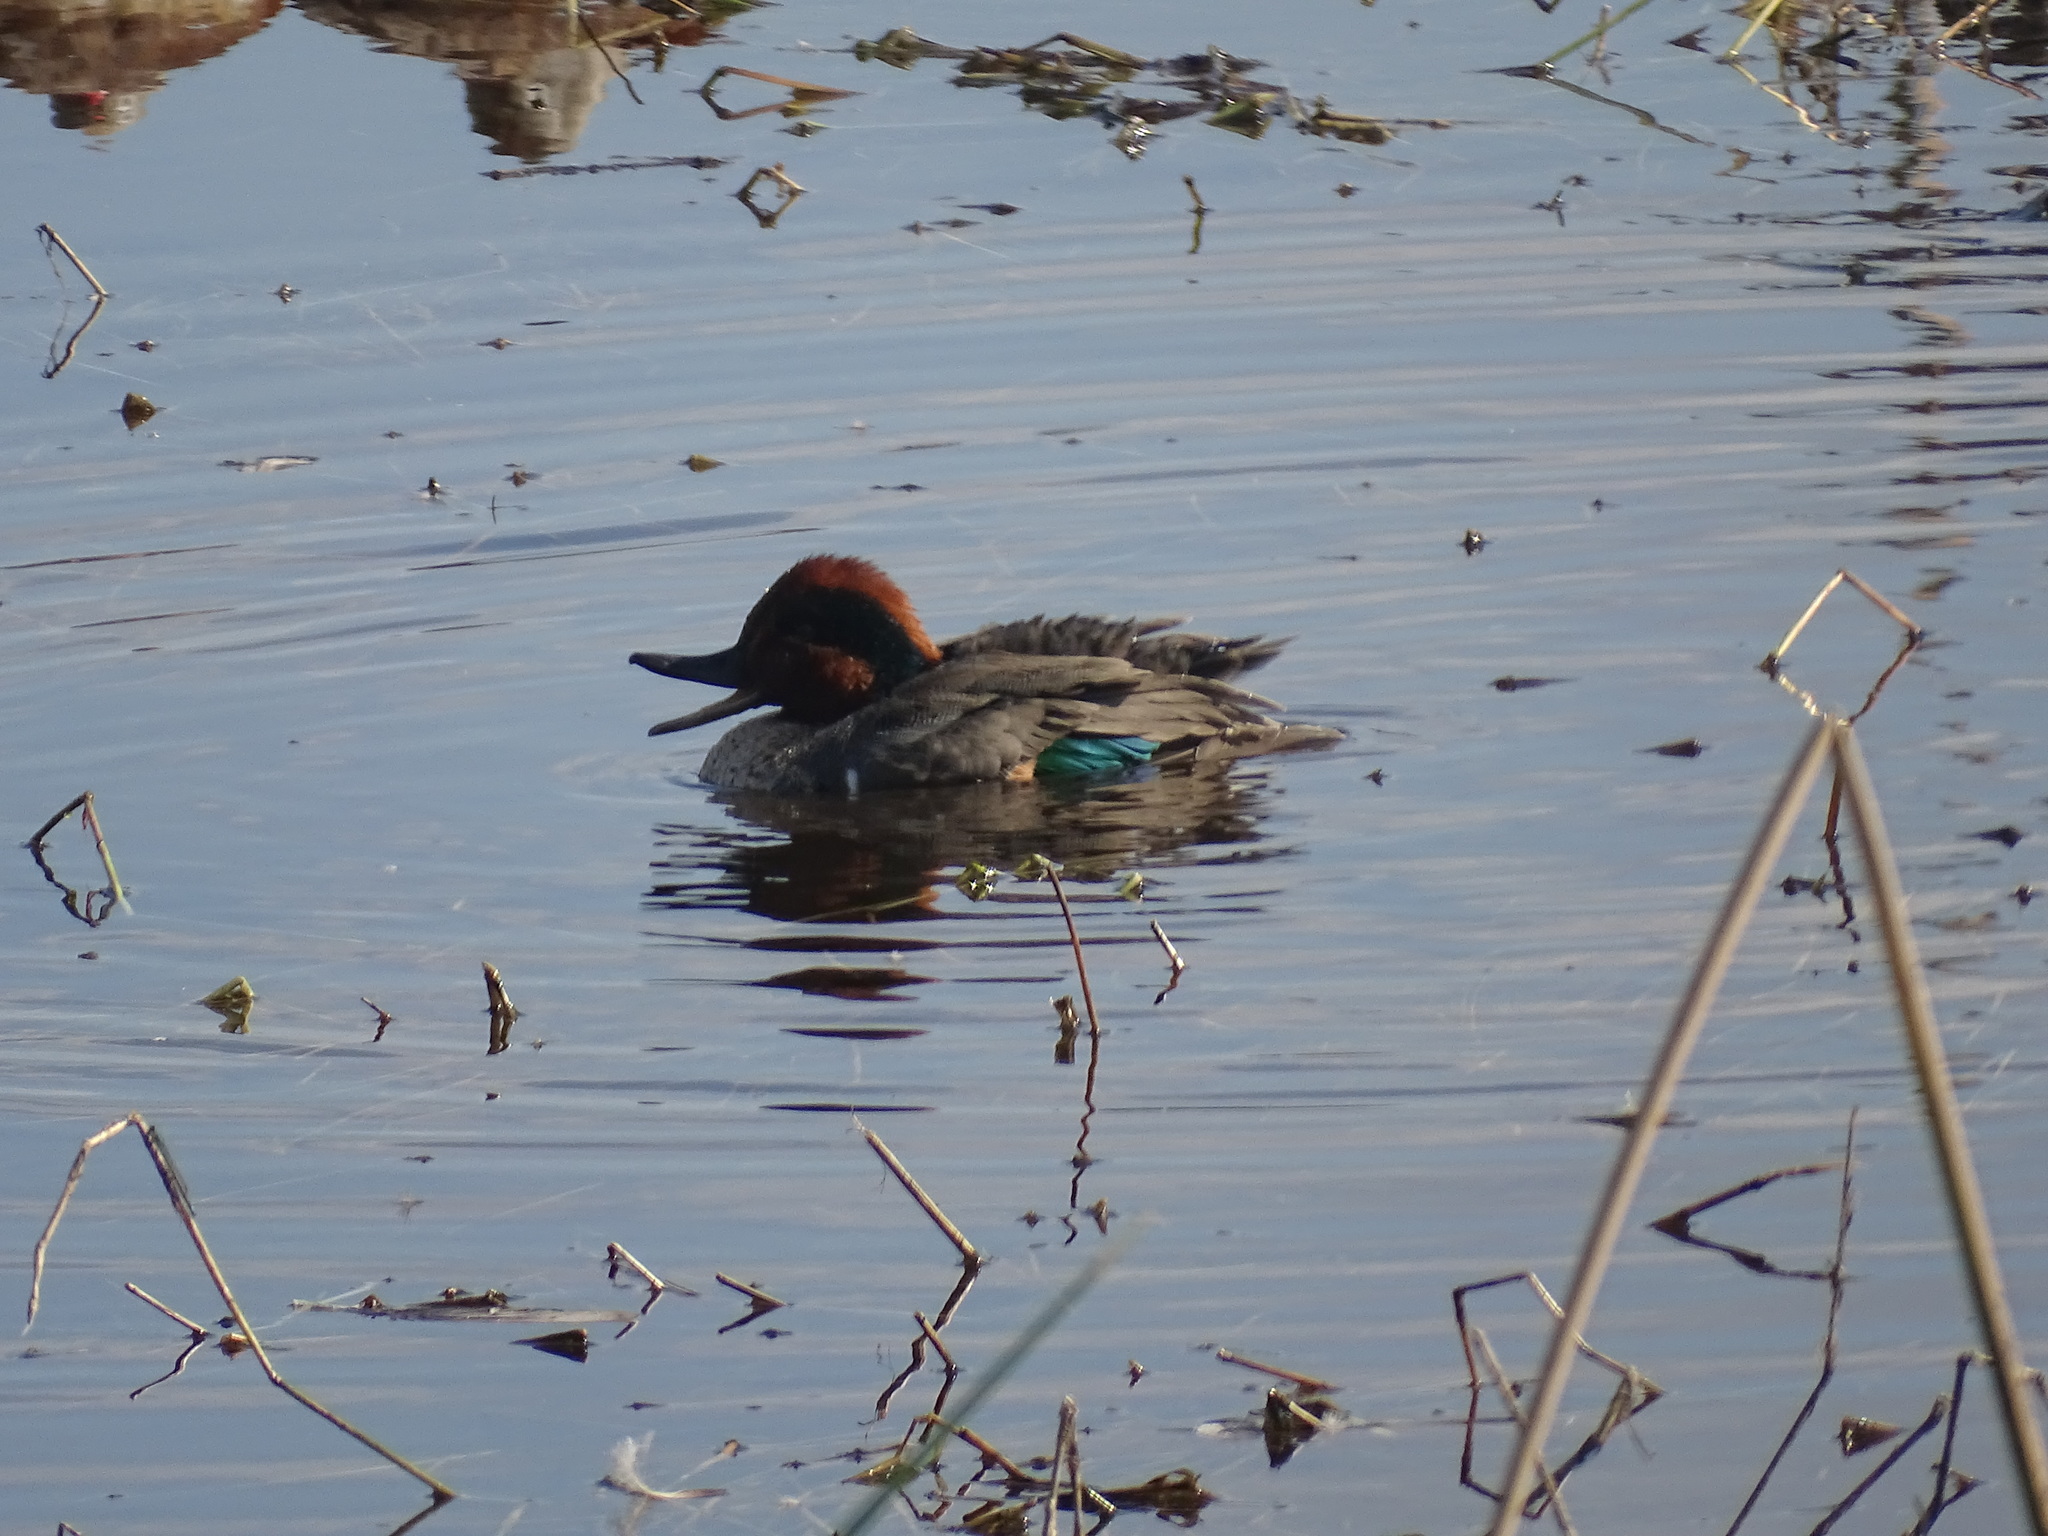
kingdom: Animalia
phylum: Chordata
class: Aves
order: Anseriformes
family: Anatidae
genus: Anas
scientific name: Anas crecca
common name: Eurasian teal
